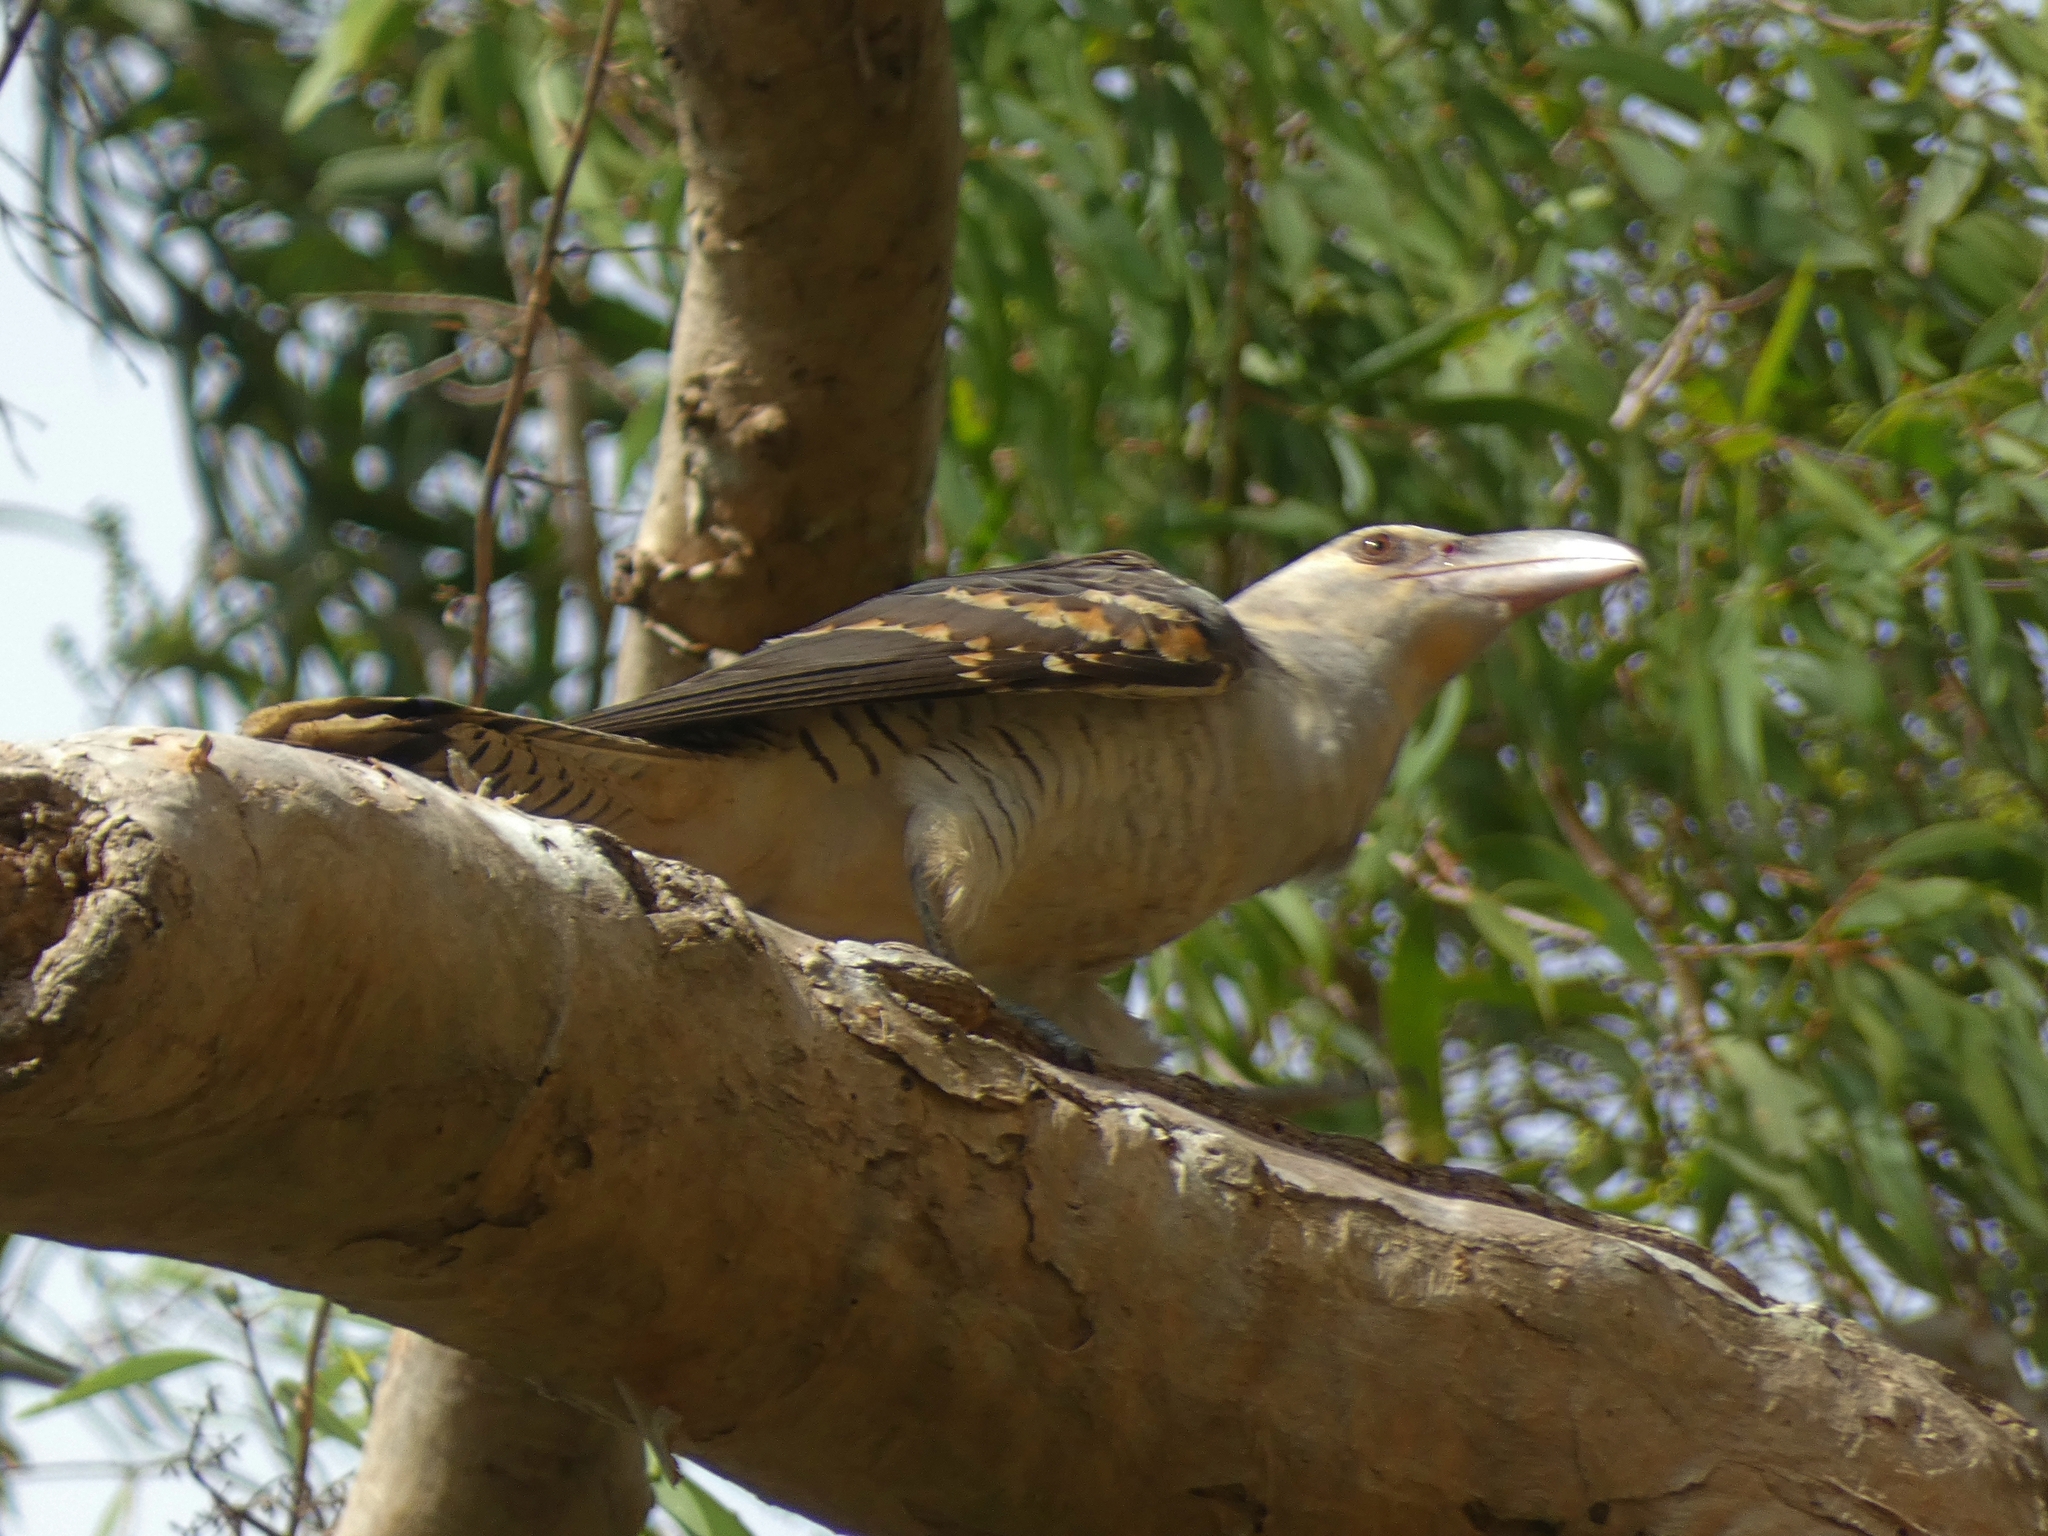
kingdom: Animalia
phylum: Chordata
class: Aves
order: Cuculiformes
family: Cuculidae
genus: Scythrops
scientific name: Scythrops novaehollandiae
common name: Channel-billed cuckoo
